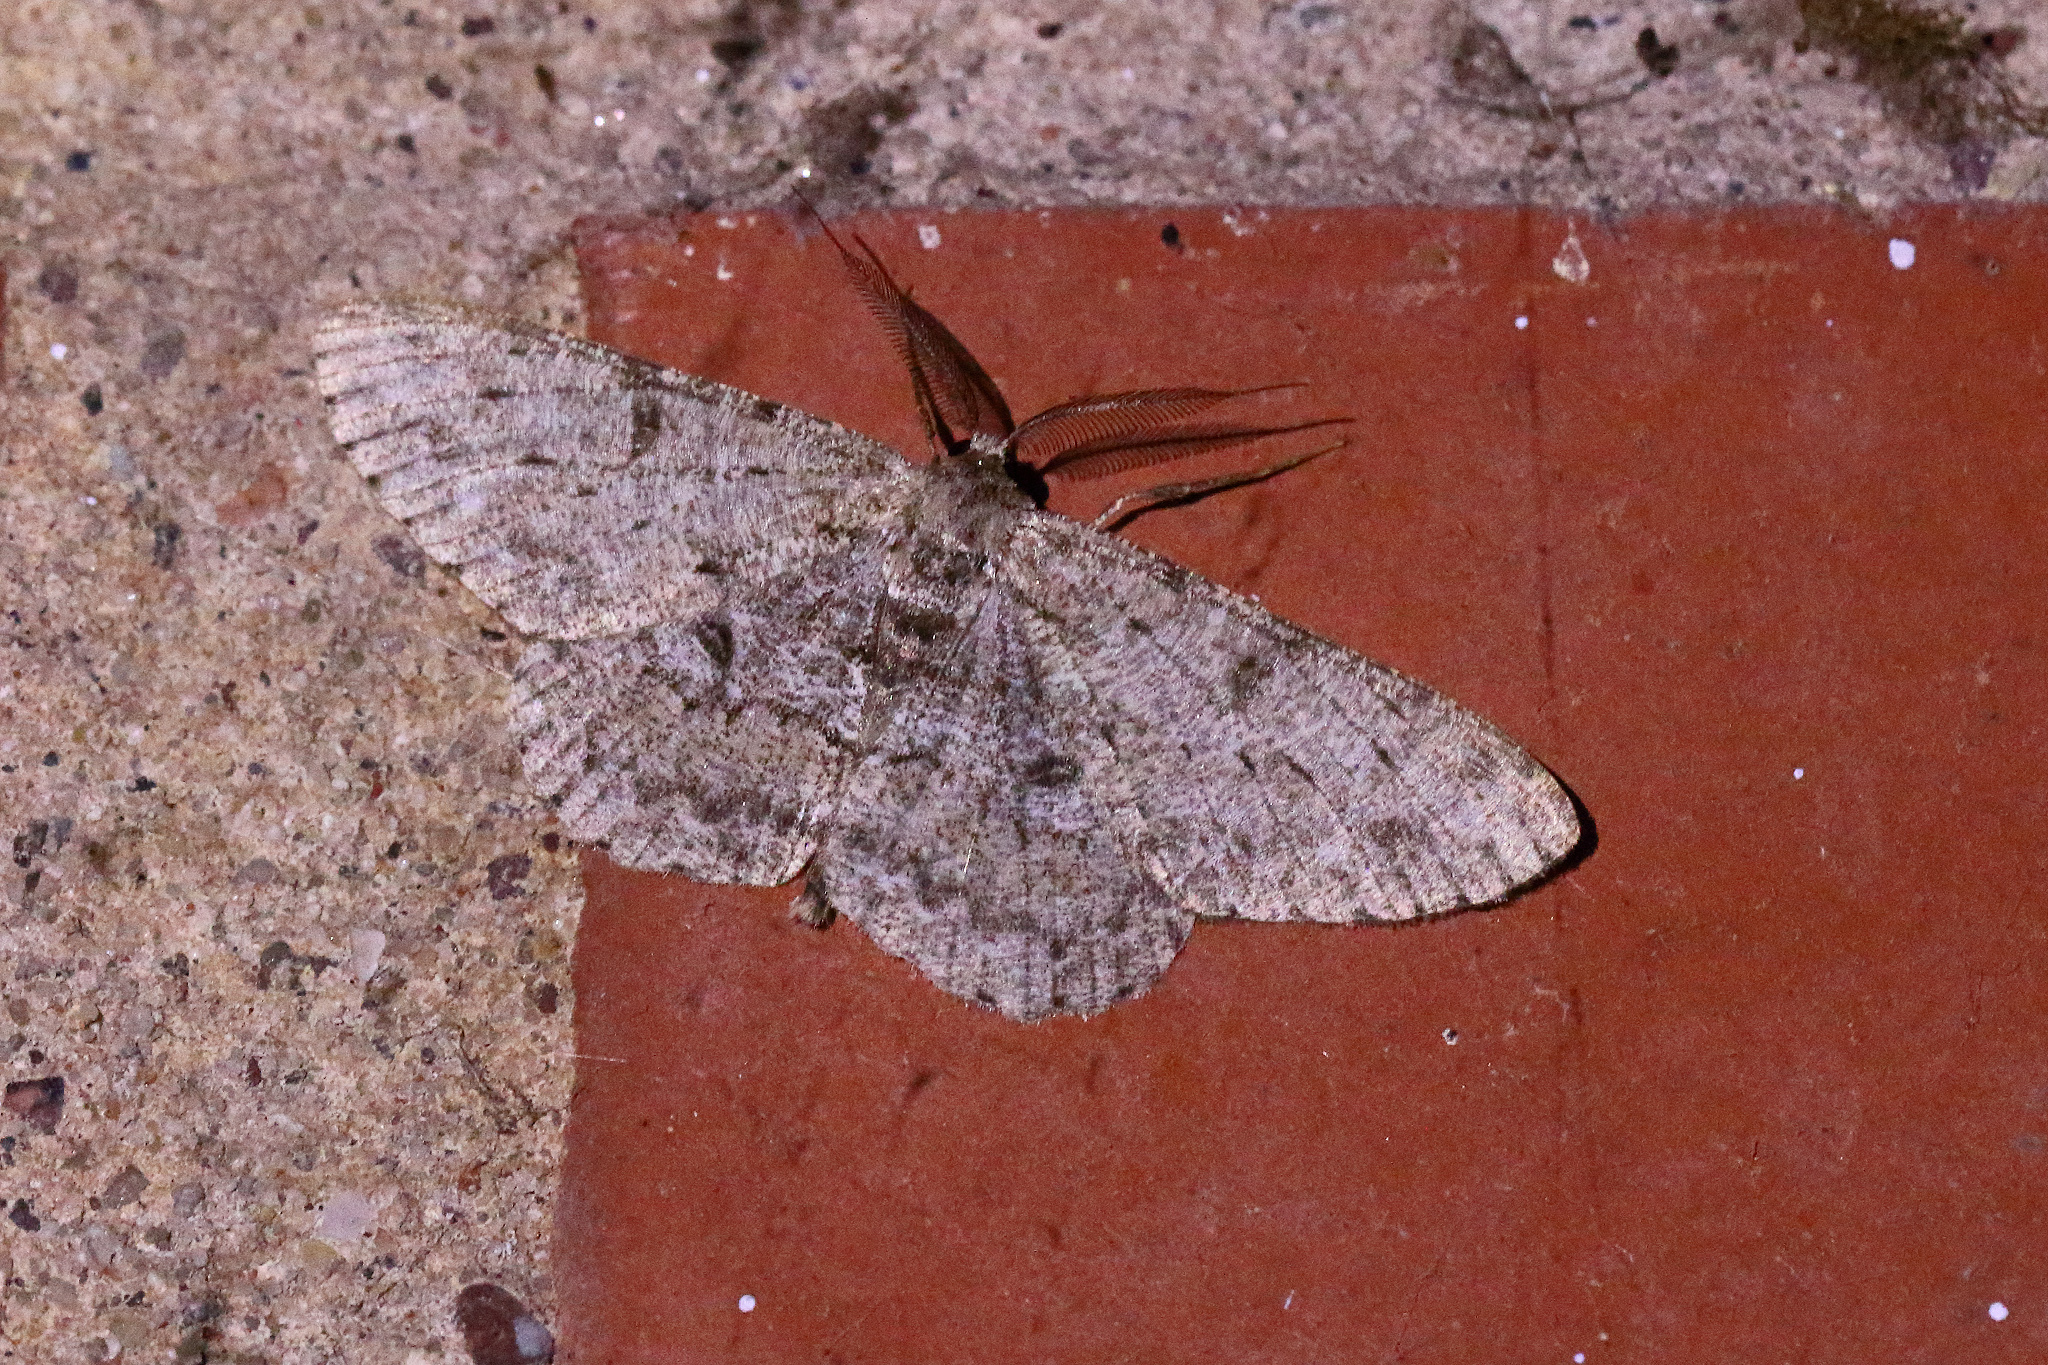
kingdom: Animalia
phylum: Arthropoda
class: Insecta
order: Lepidoptera
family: Geometridae
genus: Hypomecis
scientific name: Hypomecis punctinalis
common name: Pale oak beauty
